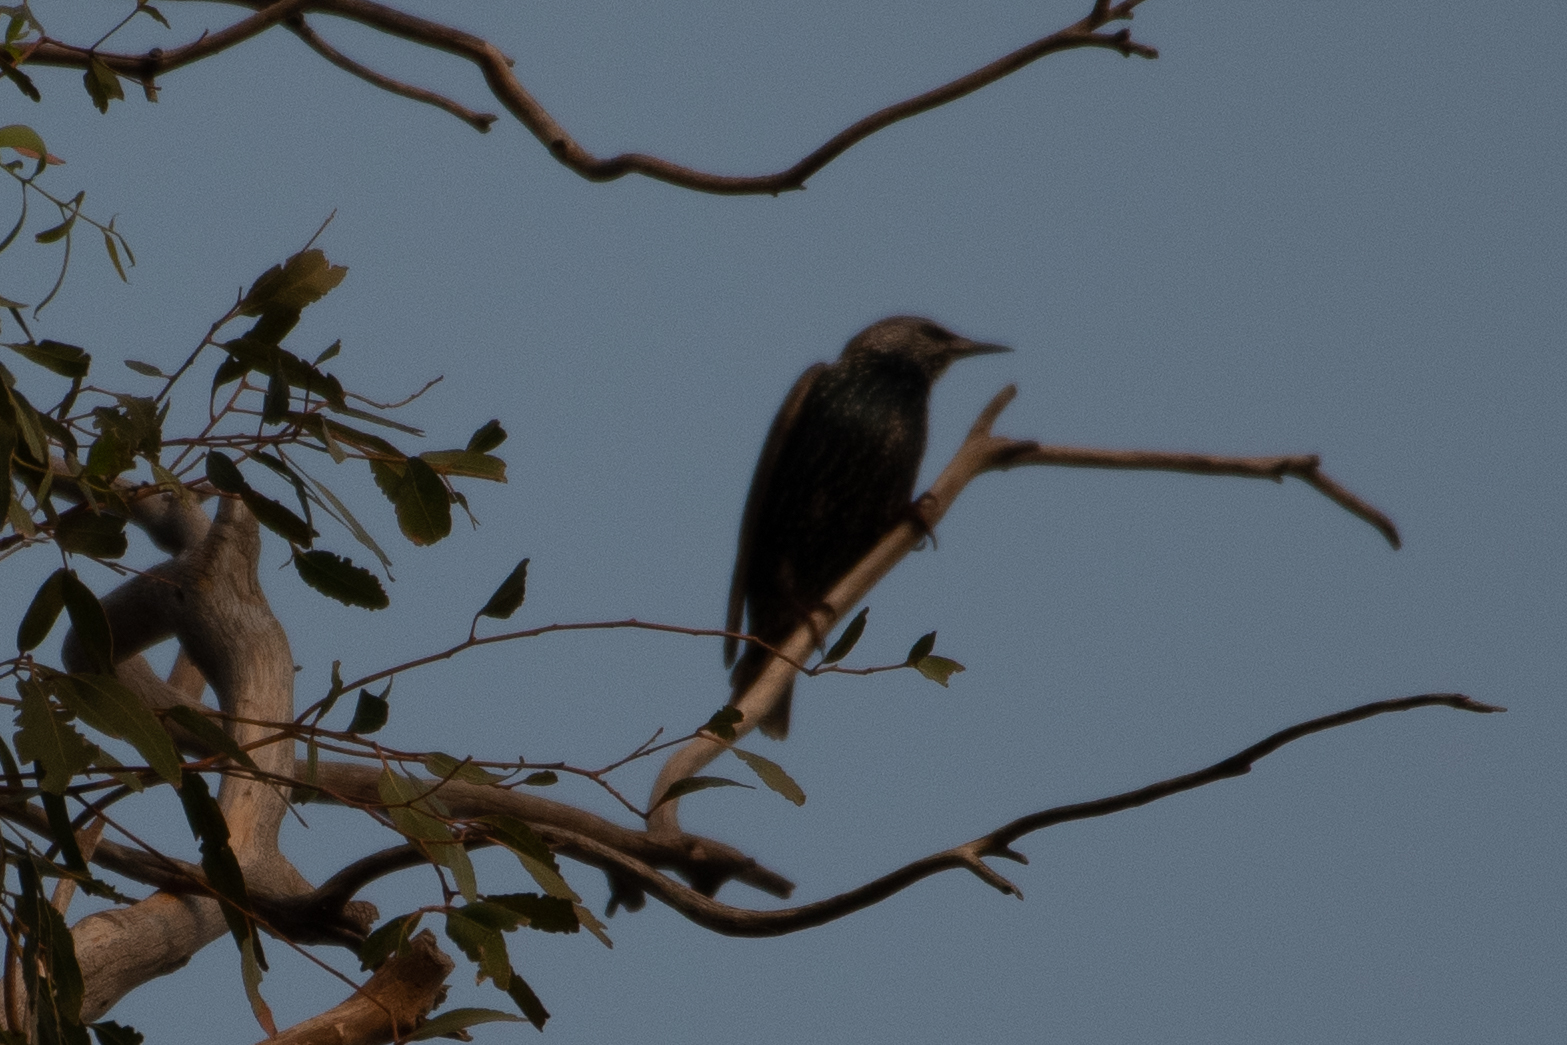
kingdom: Animalia
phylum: Chordata
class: Aves
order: Passeriformes
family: Sturnidae
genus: Sturnus
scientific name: Sturnus vulgaris
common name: Common starling
